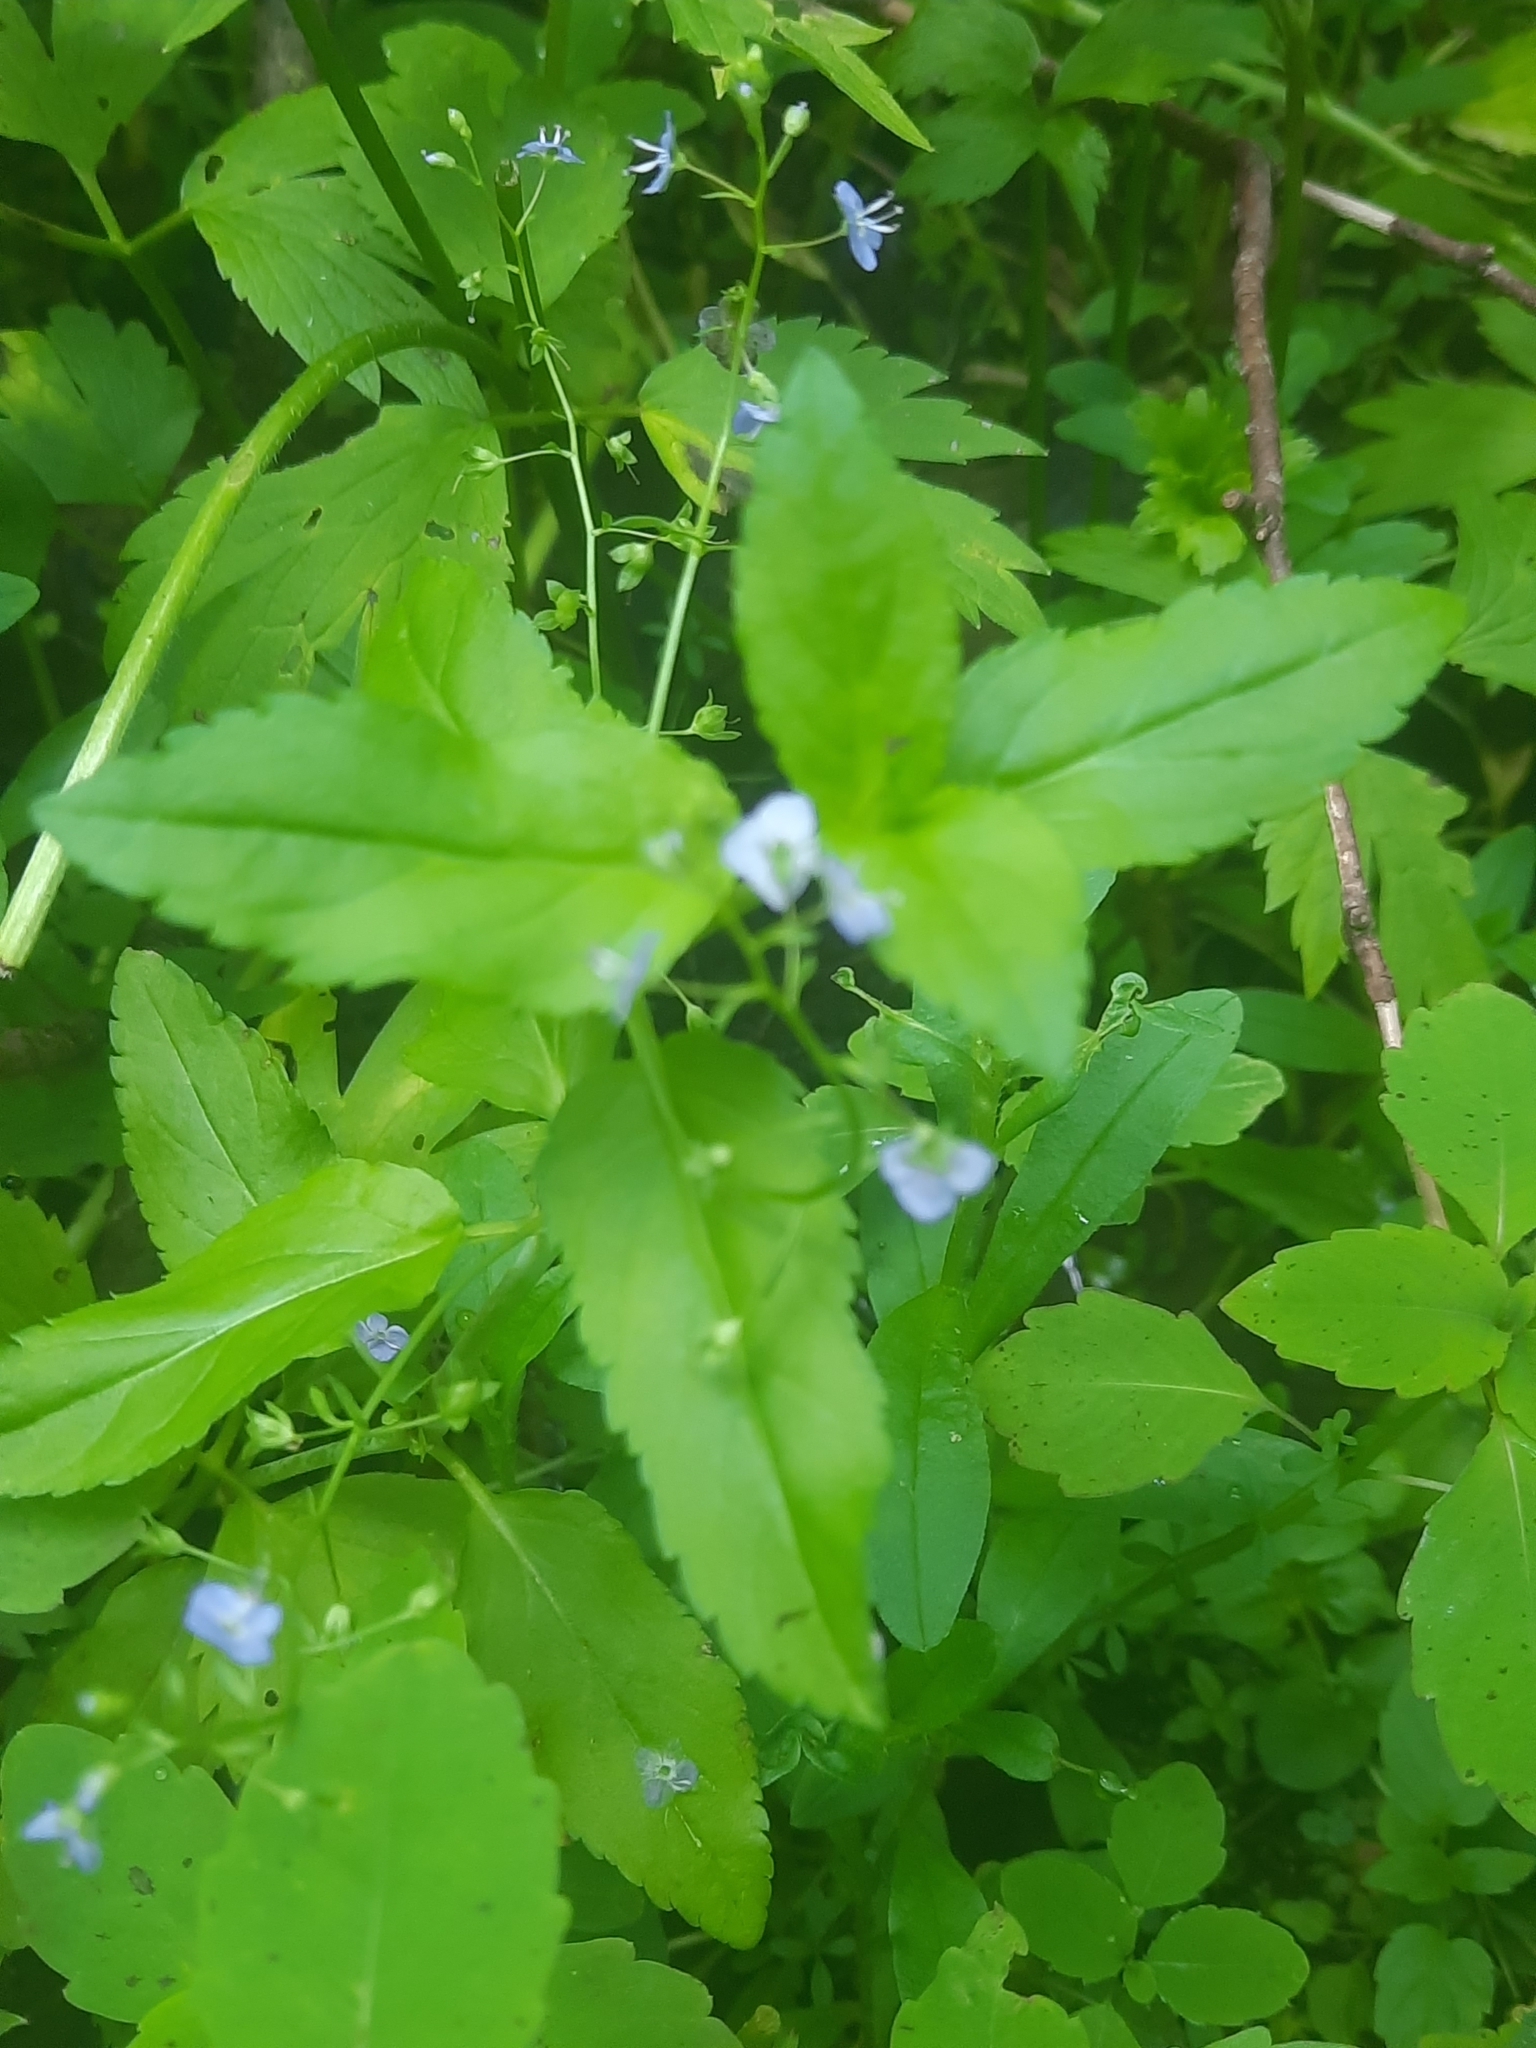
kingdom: Plantae
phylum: Tracheophyta
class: Magnoliopsida
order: Lamiales
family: Plantaginaceae
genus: Veronica
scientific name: Veronica americana
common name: American brooklime
